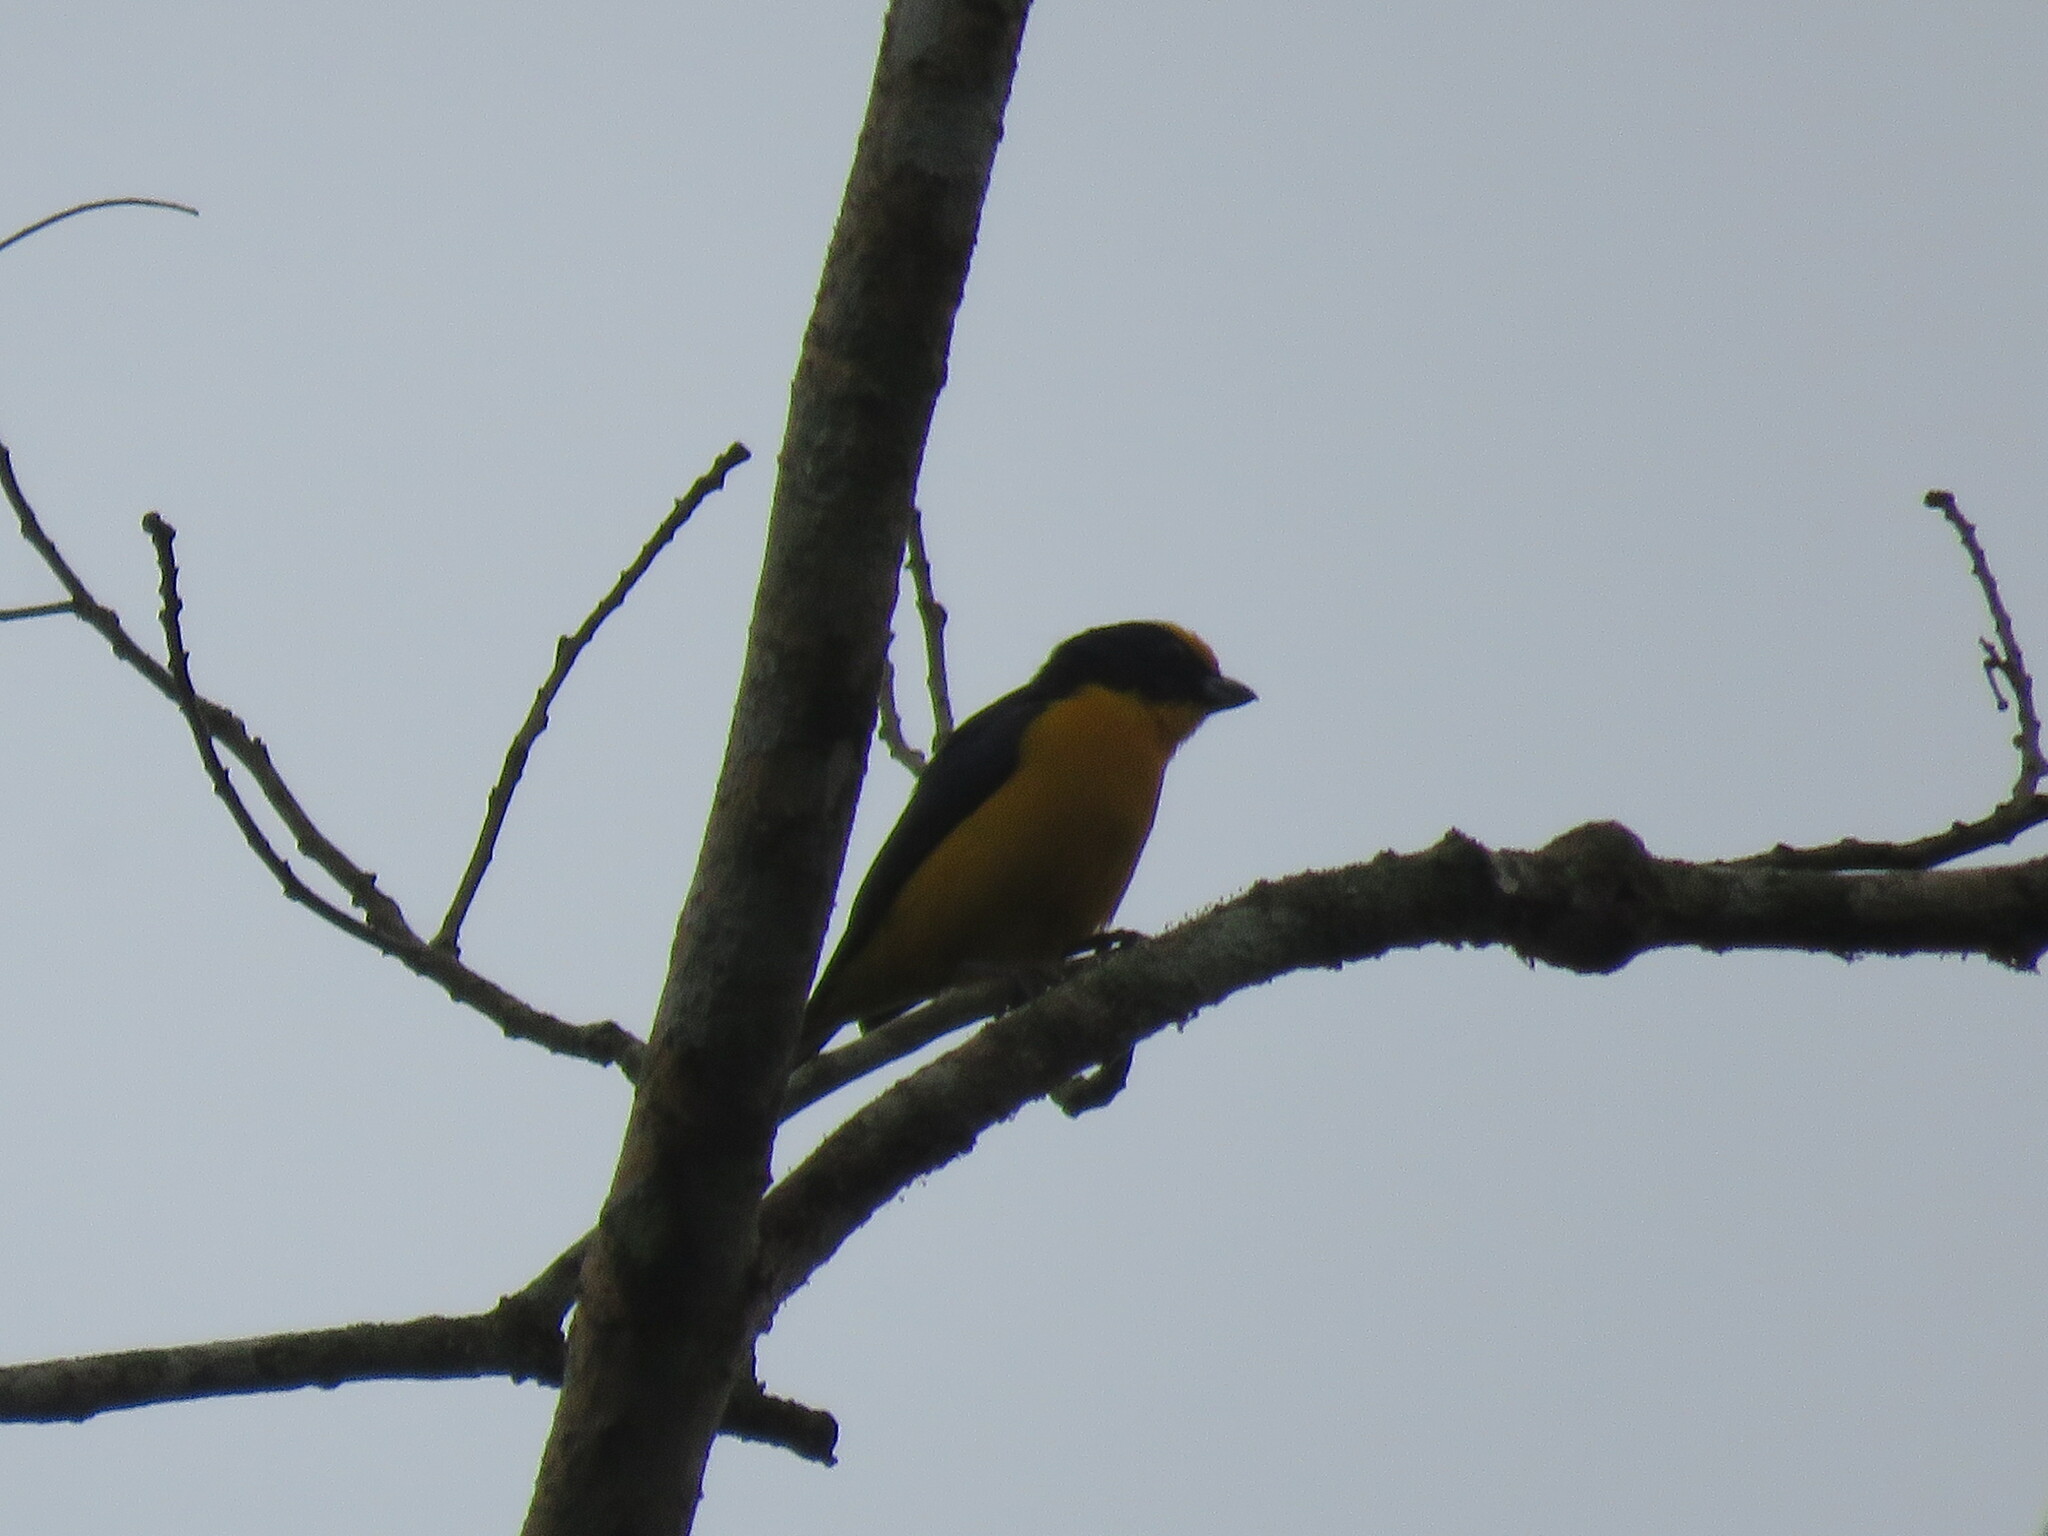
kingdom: Animalia
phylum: Chordata
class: Aves
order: Passeriformes
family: Fringillidae
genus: Euphonia
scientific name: Euphonia laniirostris
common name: Thick-billed euphonia
